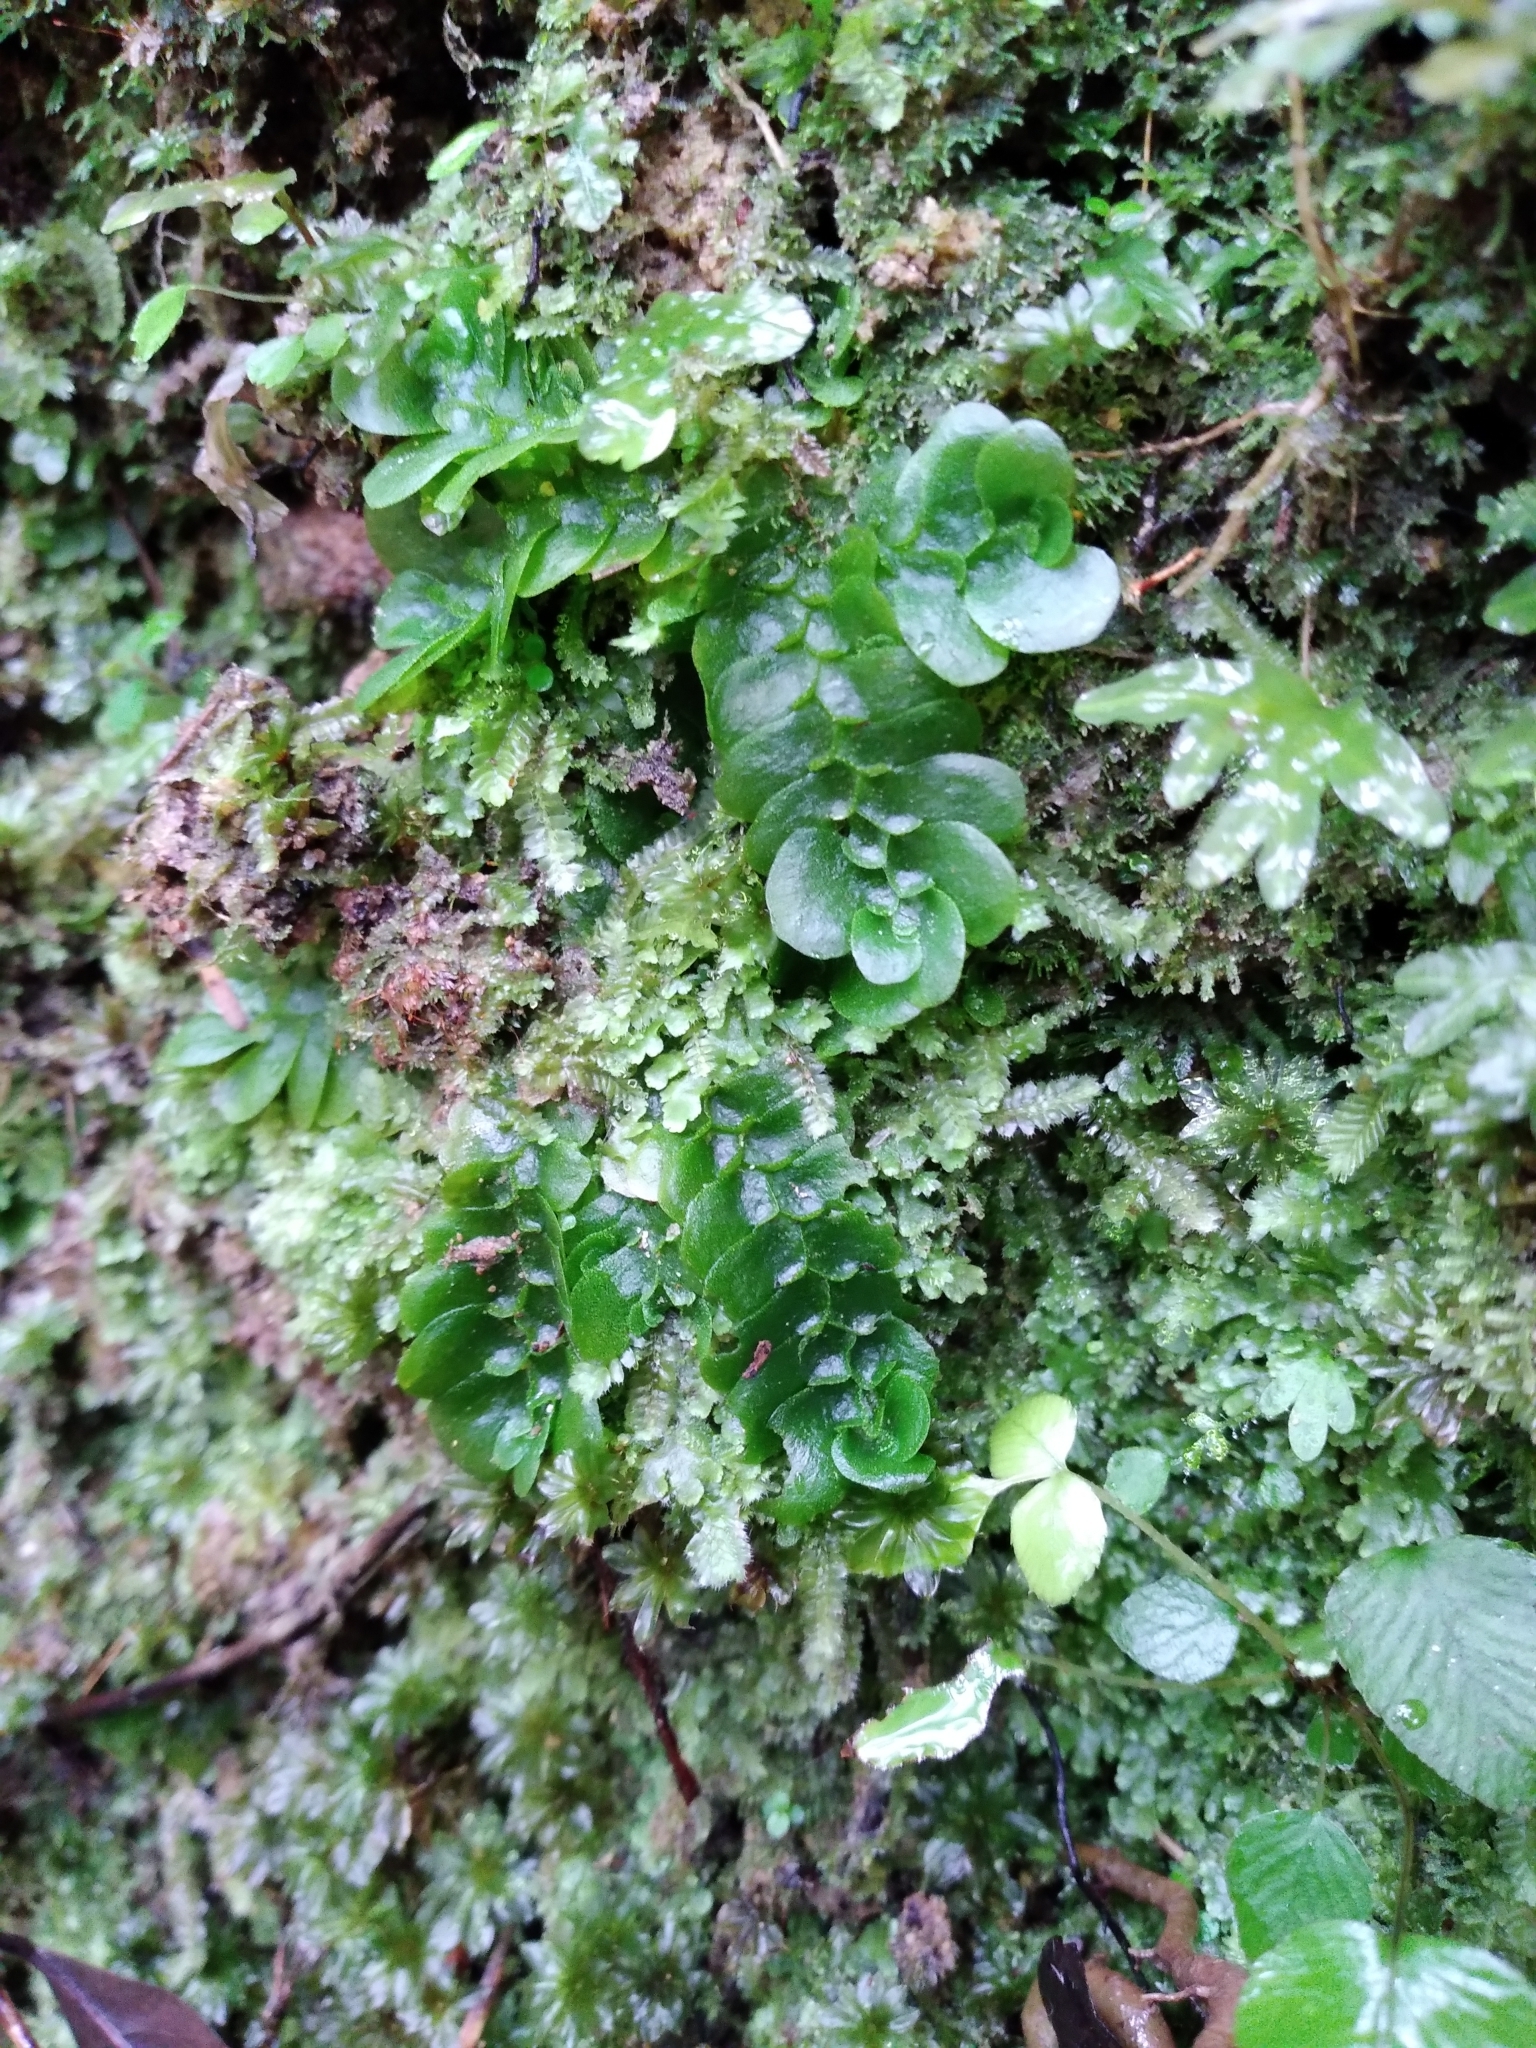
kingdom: Plantae
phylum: Marchantiophyta
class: Haplomitriopsida
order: Treubiales
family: Treubiaceae
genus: Treubia
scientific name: Treubia lacunosa
